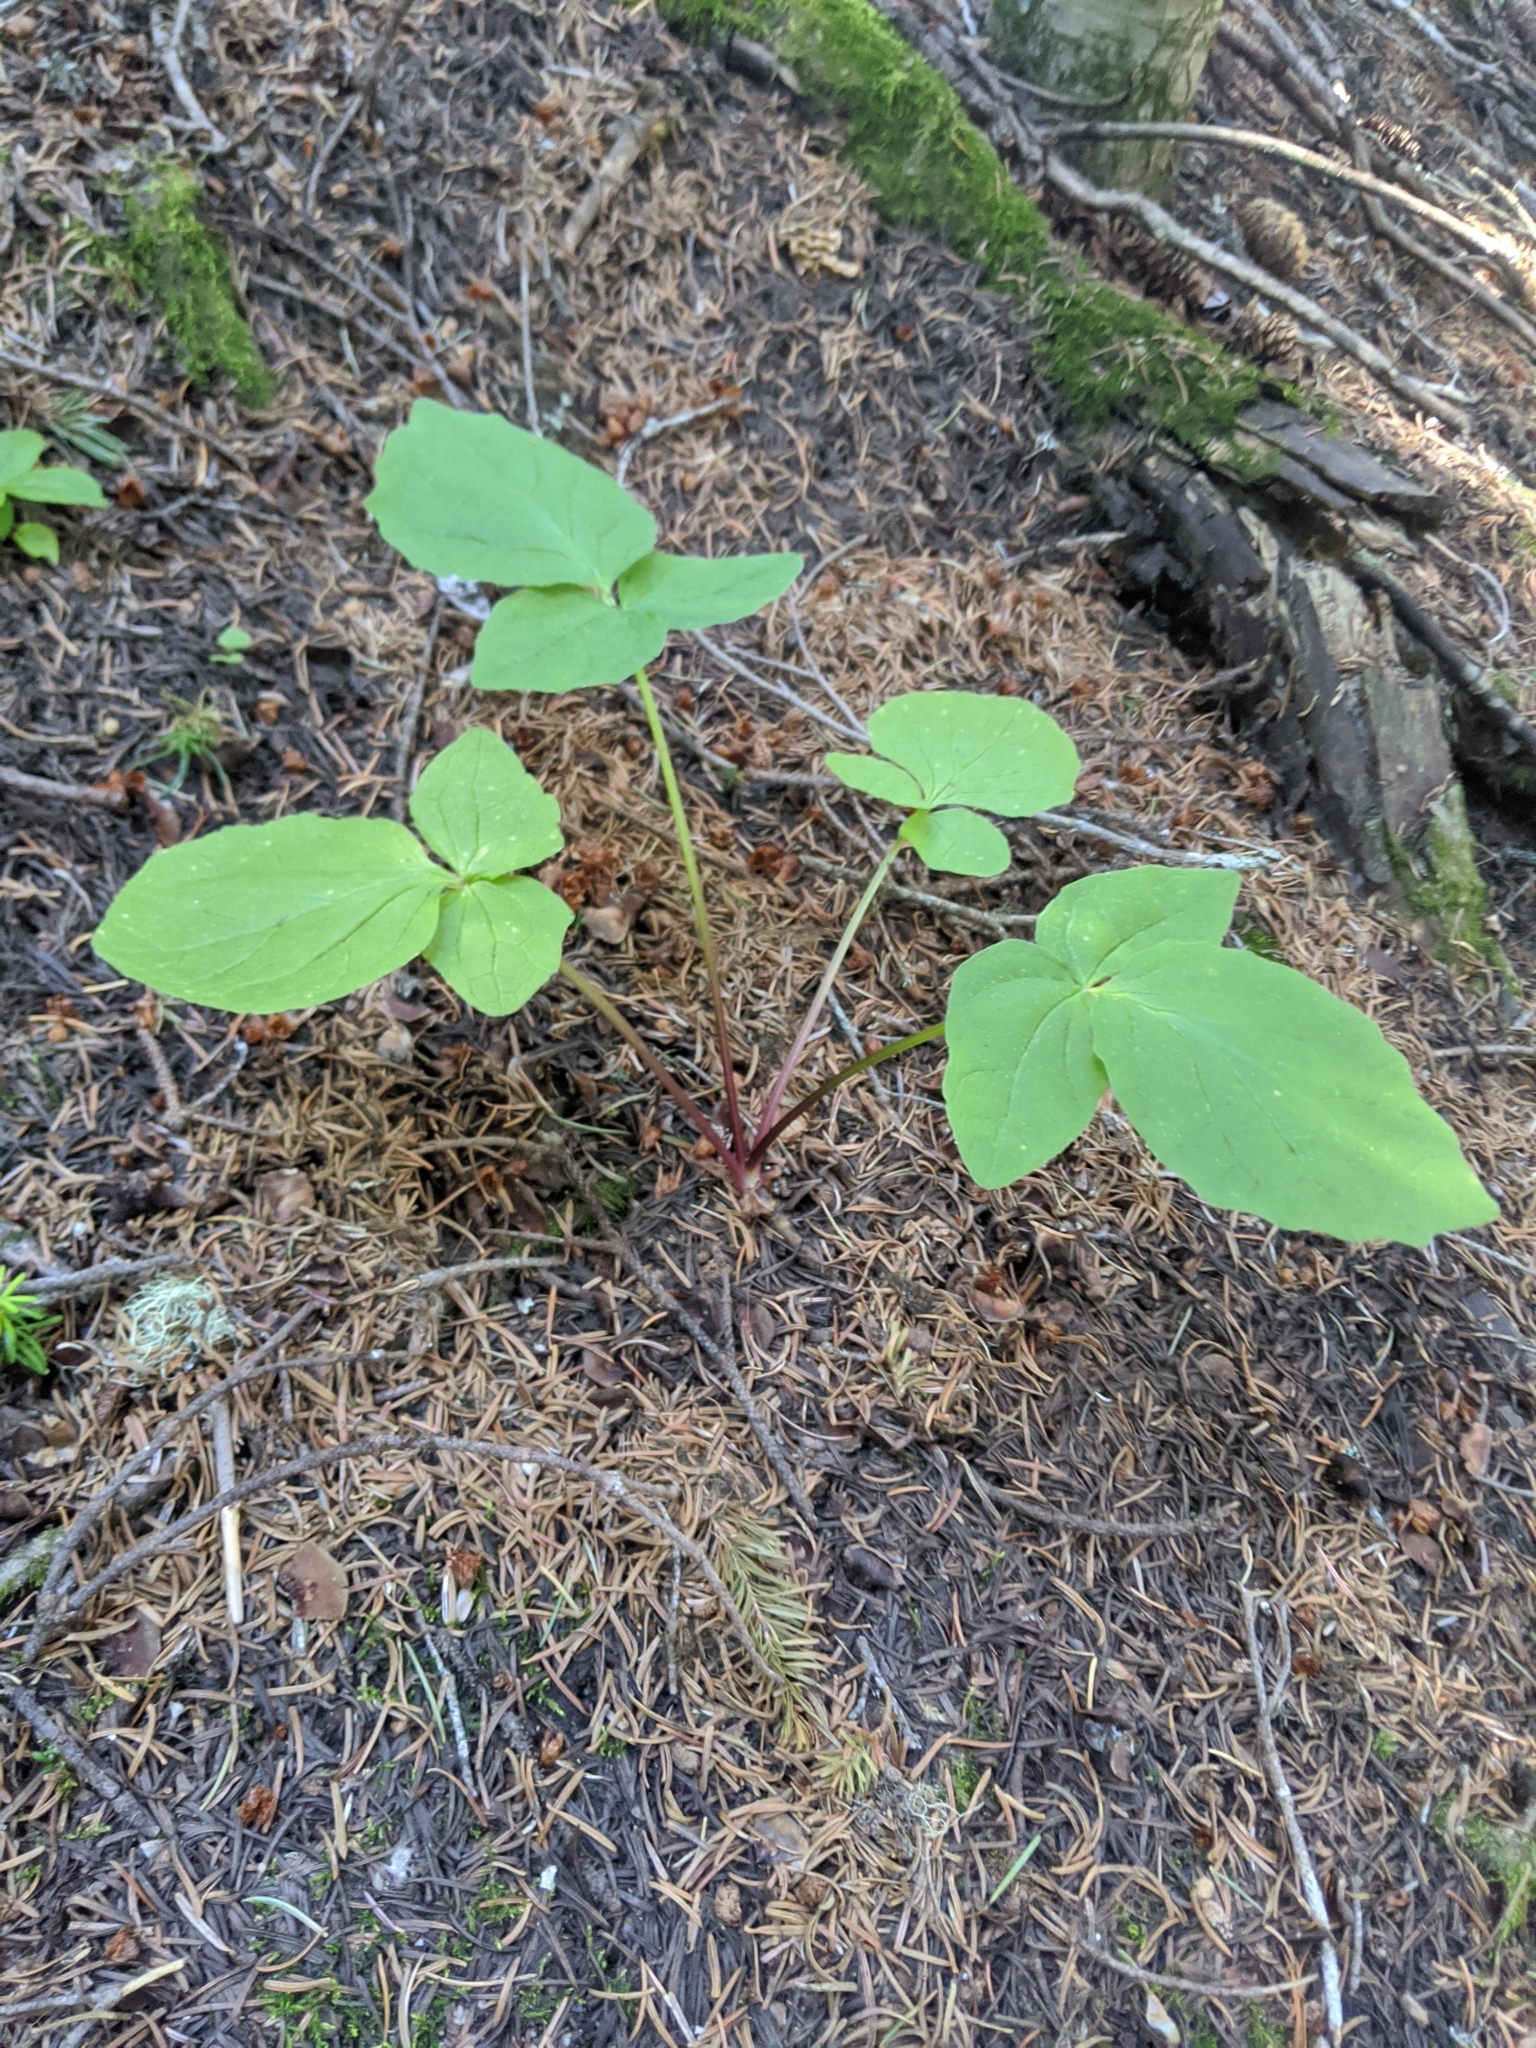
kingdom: Plantae
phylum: Tracheophyta
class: Magnoliopsida
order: Dipsacales
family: Caprifoliaceae
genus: Valeriana
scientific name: Valeriana sitchensis
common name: Pacific valerian
